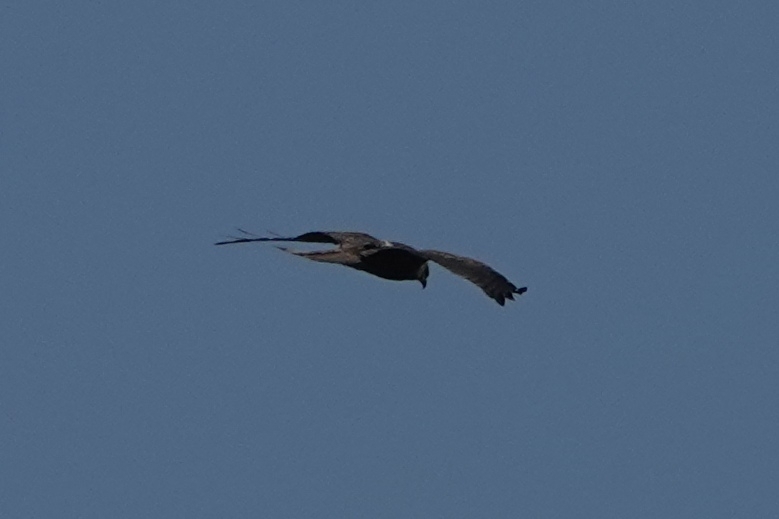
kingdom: Animalia
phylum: Chordata
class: Aves
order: Accipitriformes
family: Accipitridae
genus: Milvus
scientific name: Milvus migrans
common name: Black kite
